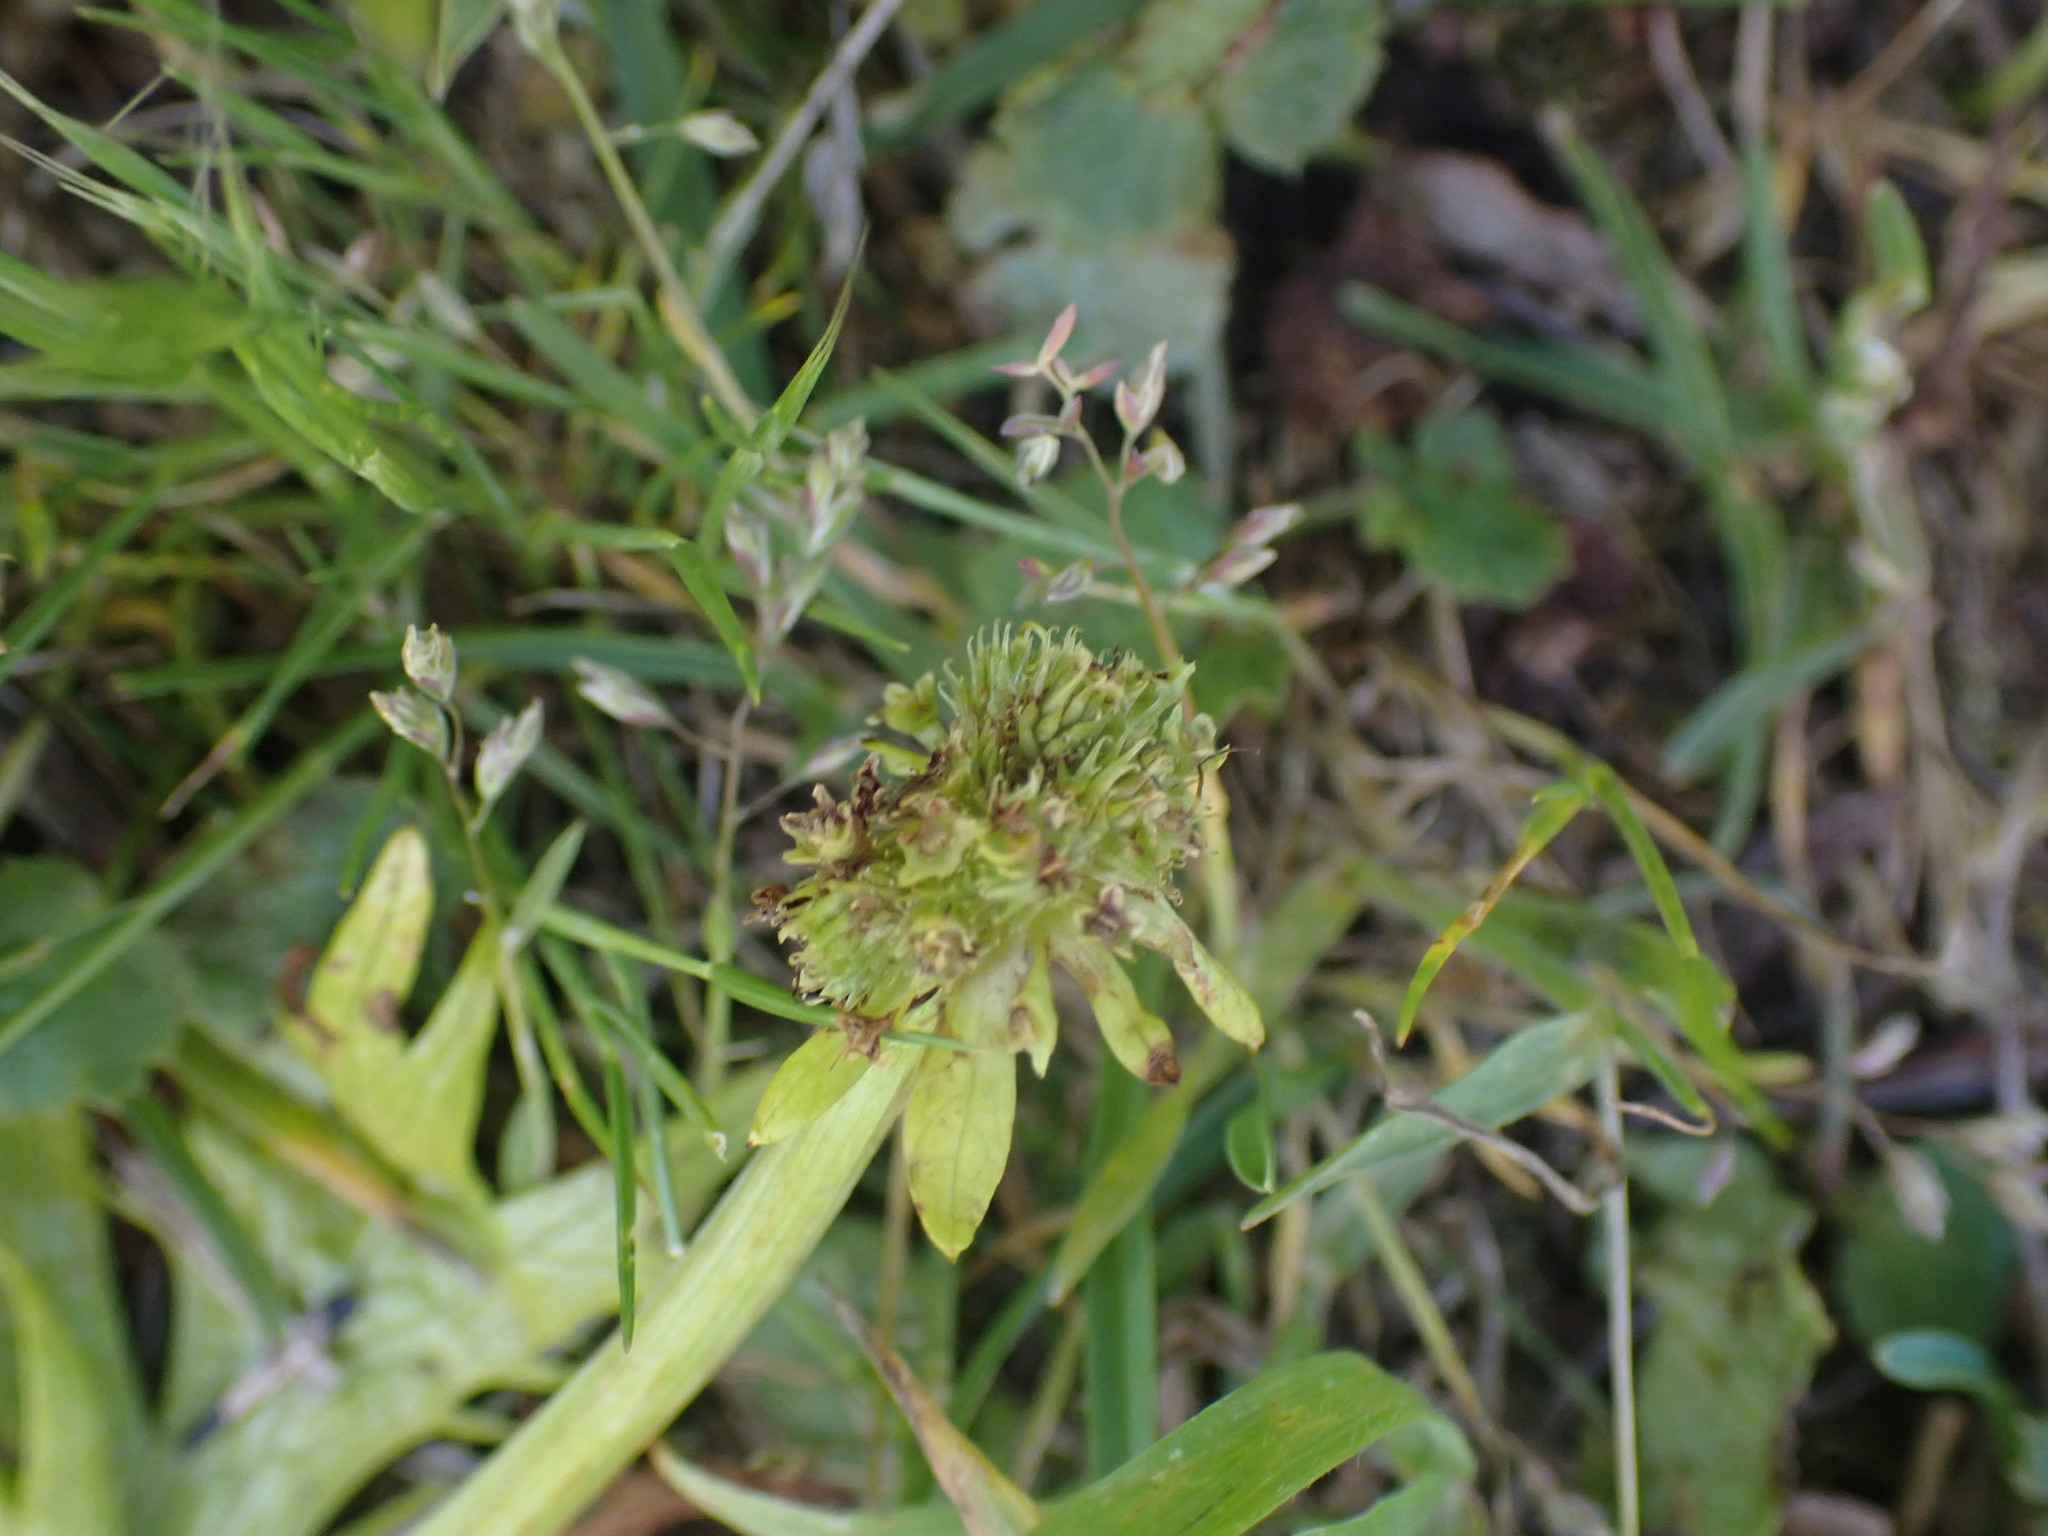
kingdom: Plantae
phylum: Tracheophyta
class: Magnoliopsida
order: Apiales
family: Apiaceae
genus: Sanicula
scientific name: Sanicula arctopoides
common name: Footsteps-of-spring
